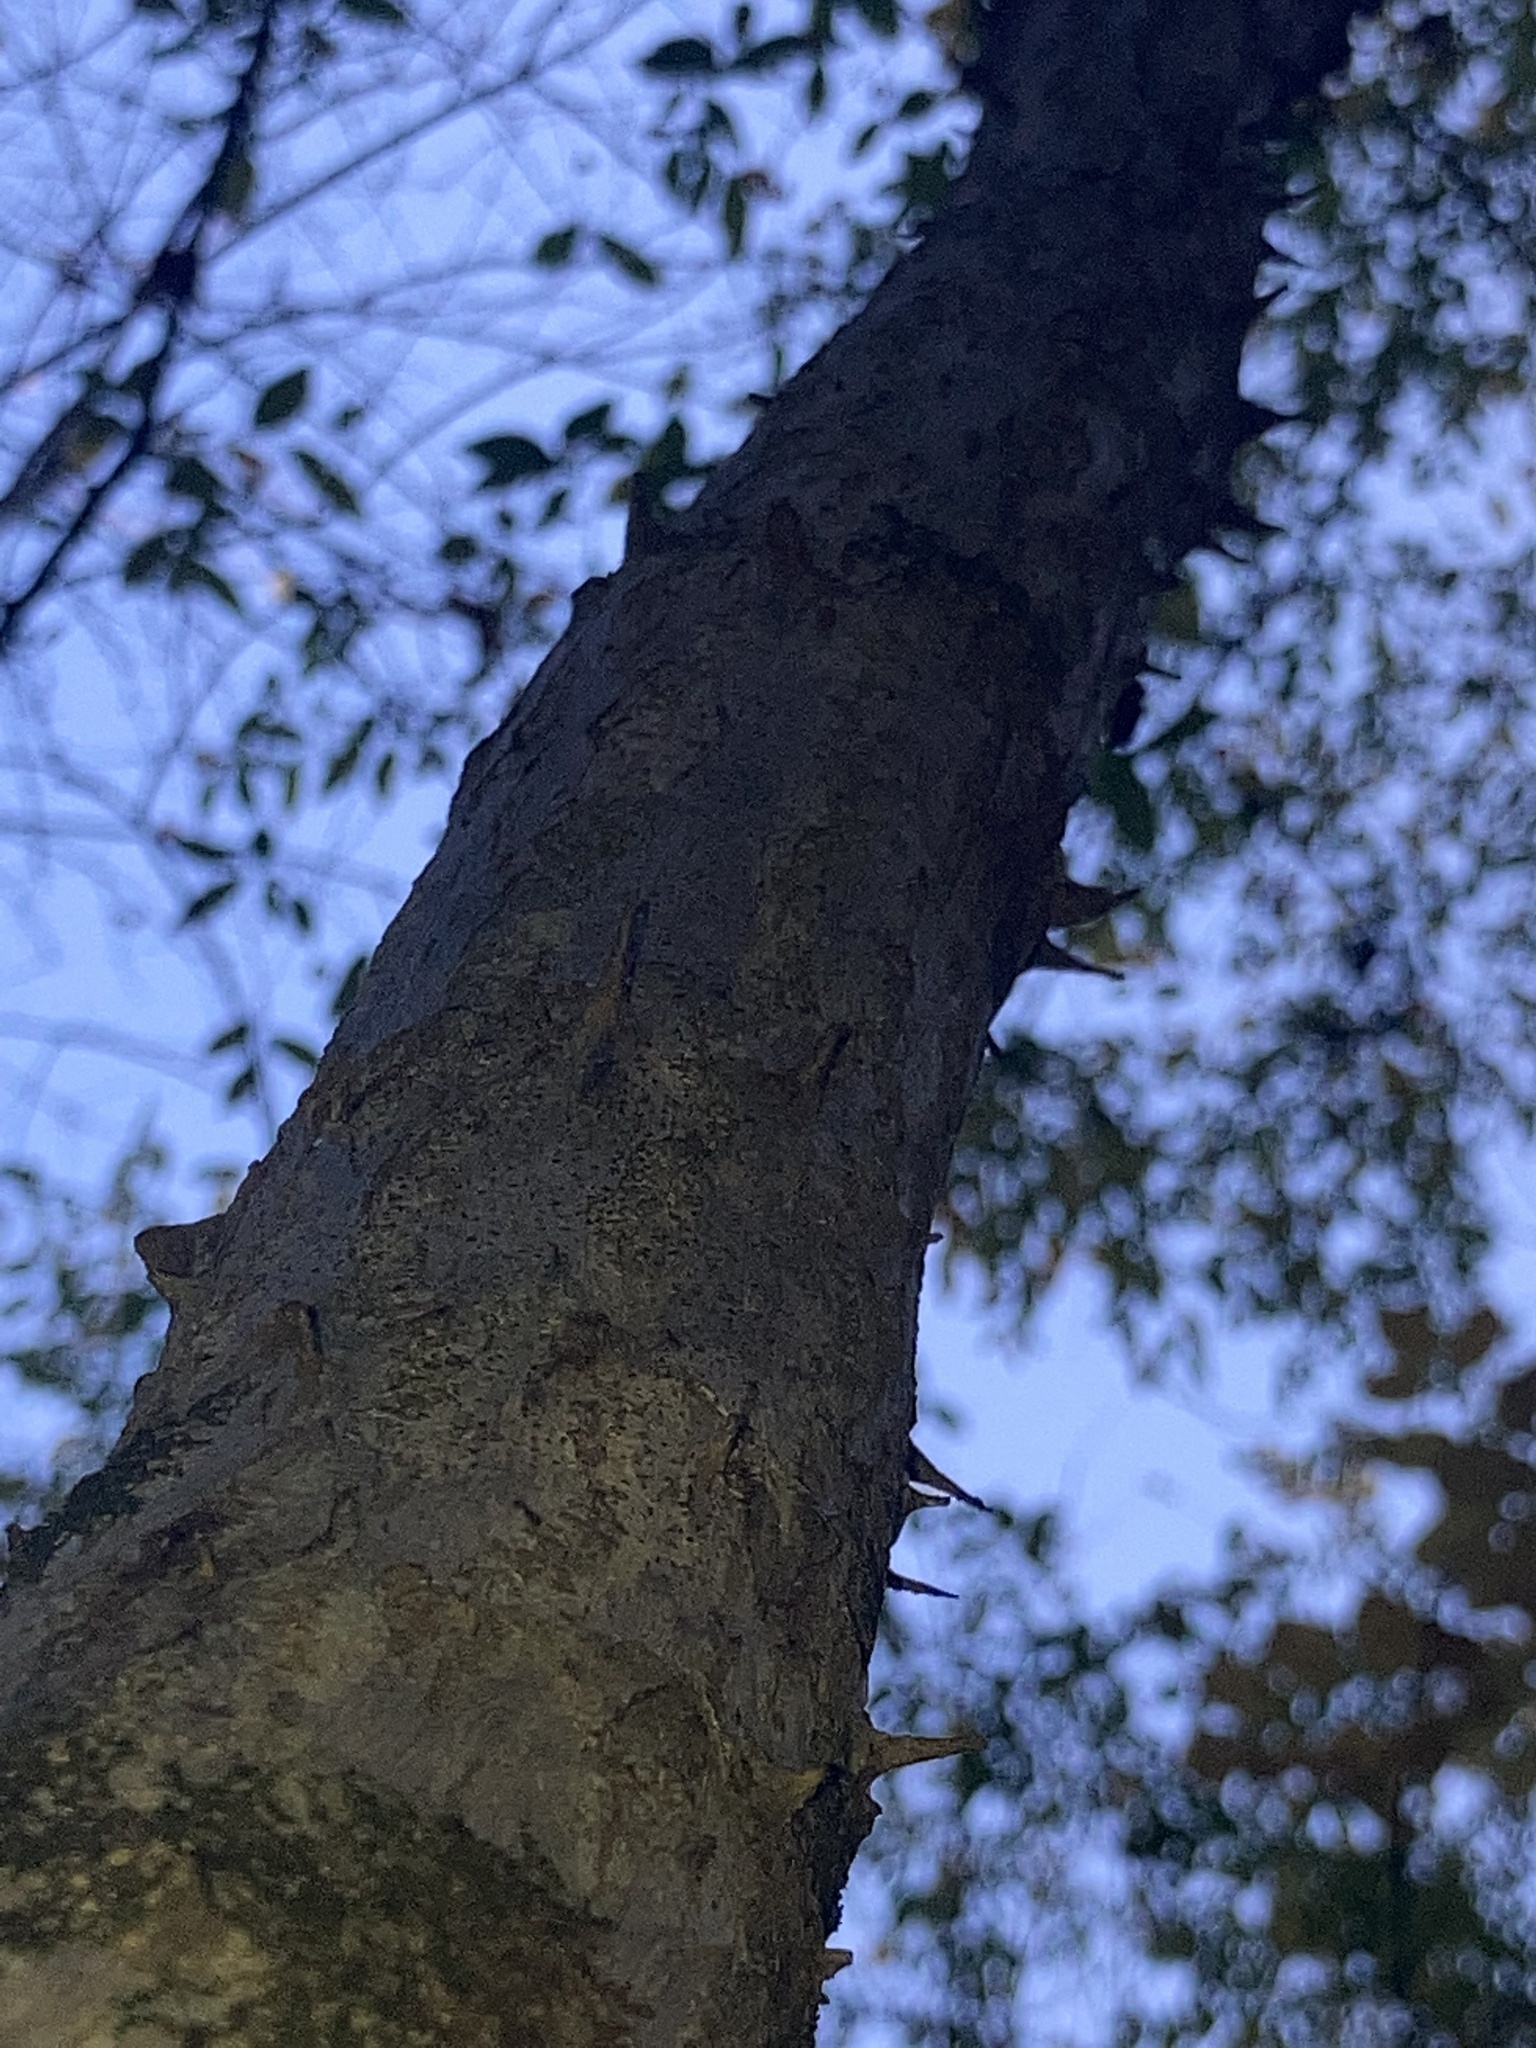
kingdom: Plantae
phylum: Tracheophyta
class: Magnoliopsida
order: Apiales
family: Araliaceae
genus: Aralia
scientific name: Aralia spinosa
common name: Hercules'-club
